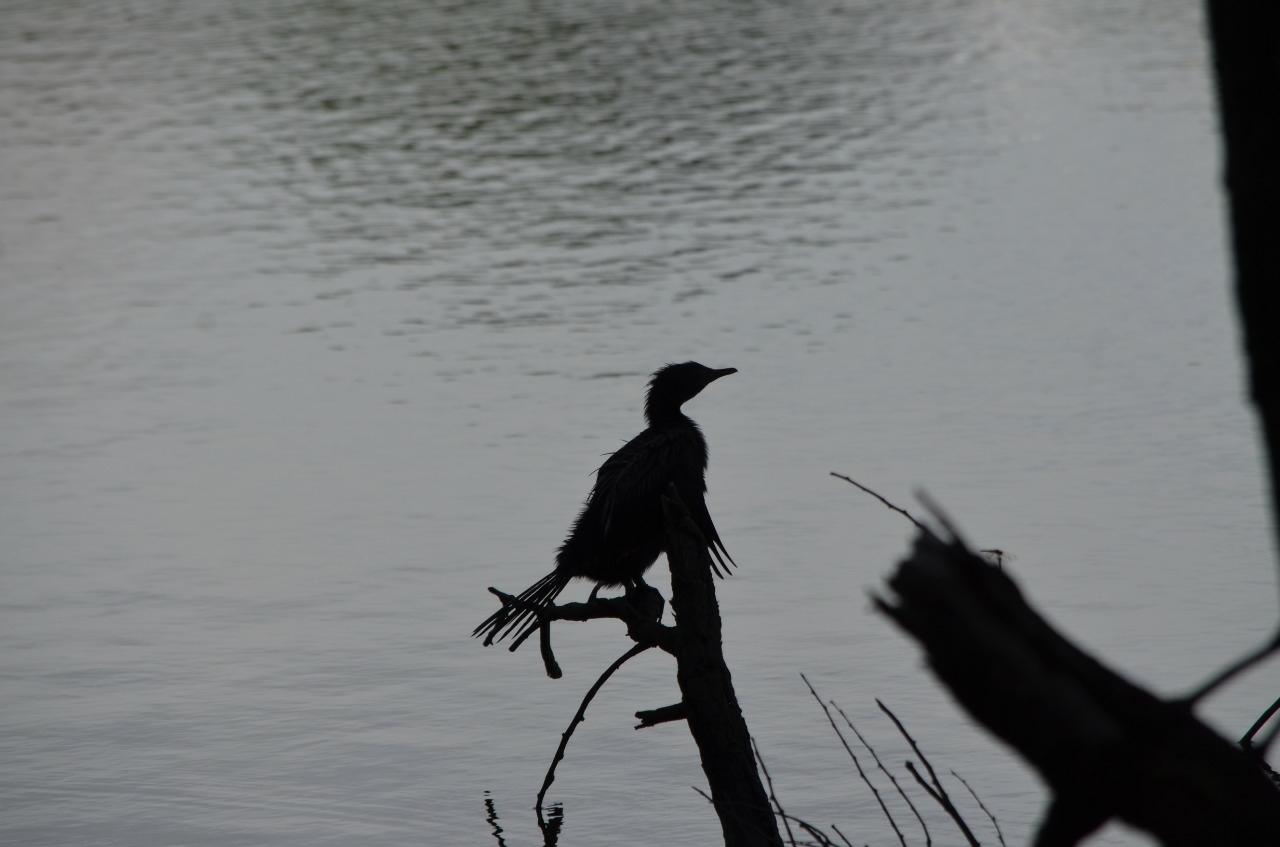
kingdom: Animalia
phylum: Chordata
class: Aves
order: Suliformes
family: Phalacrocoracidae
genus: Microcarbo
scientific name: Microcarbo niger
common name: Little cormorant
